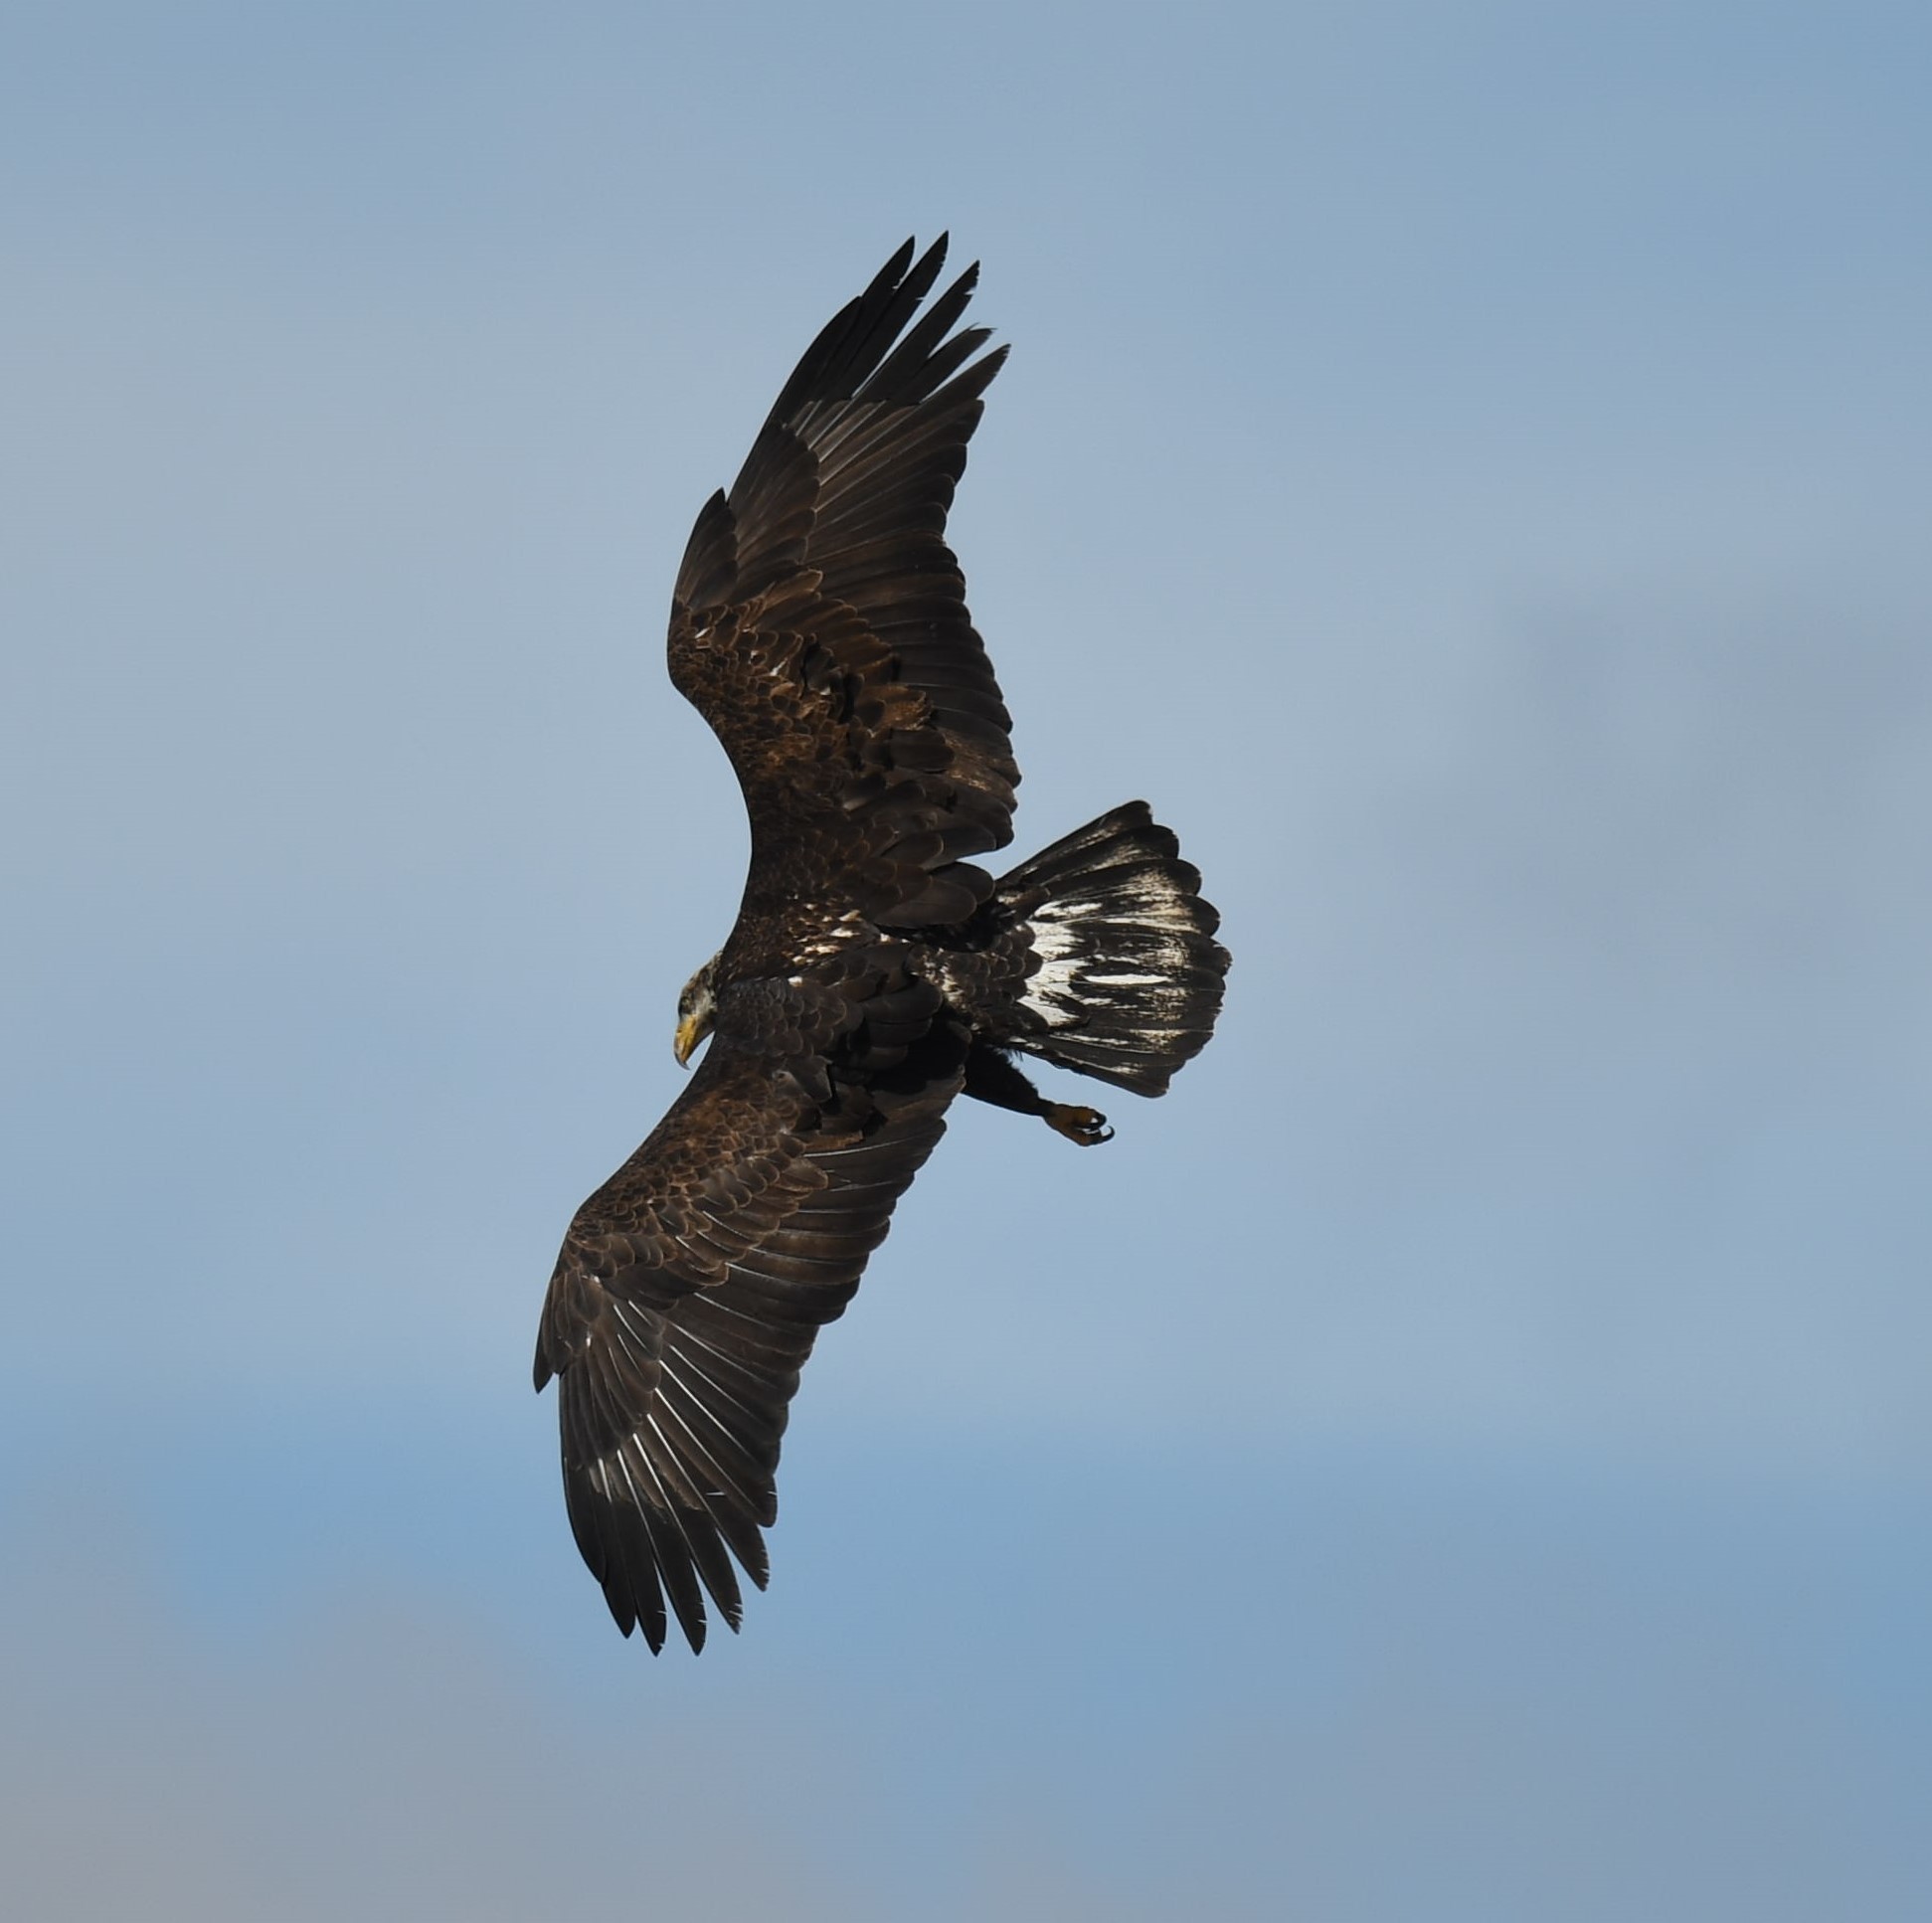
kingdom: Animalia
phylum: Chordata
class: Aves
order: Accipitriformes
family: Accipitridae
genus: Haliaeetus
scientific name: Haliaeetus leucocephalus
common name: Bald eagle
